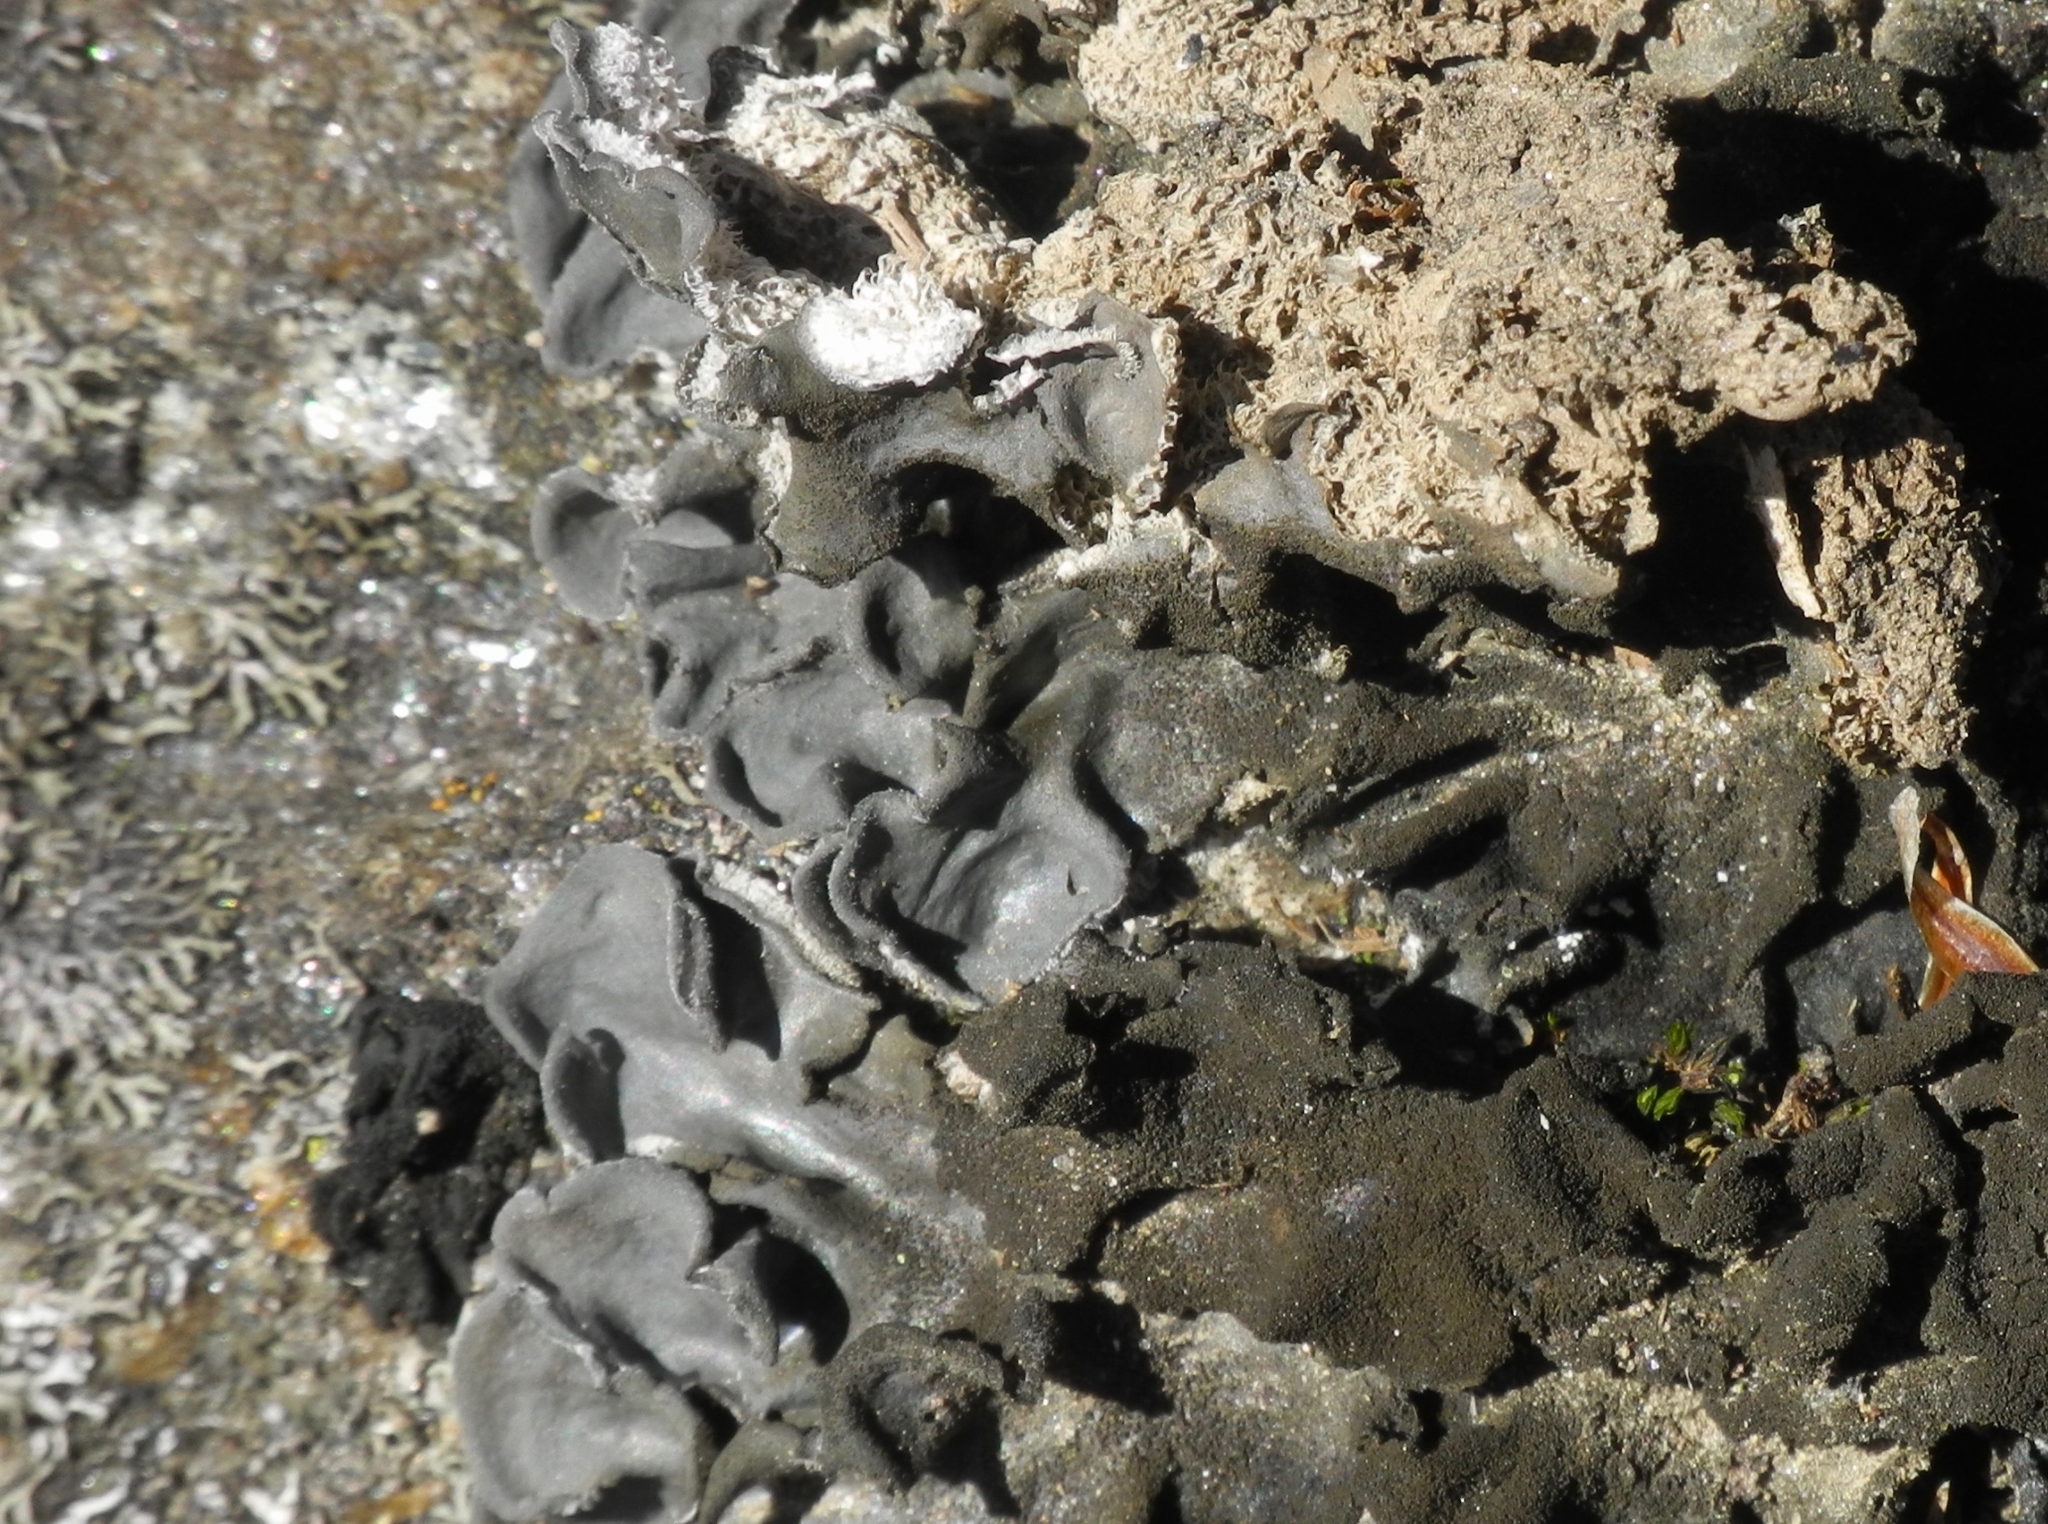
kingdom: Fungi
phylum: Ascomycota
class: Lecanoromycetes
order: Peltigerales
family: Collemataceae
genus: Leptogium
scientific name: Leptogium hirsutum
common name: Hairy jellyskin lichen
